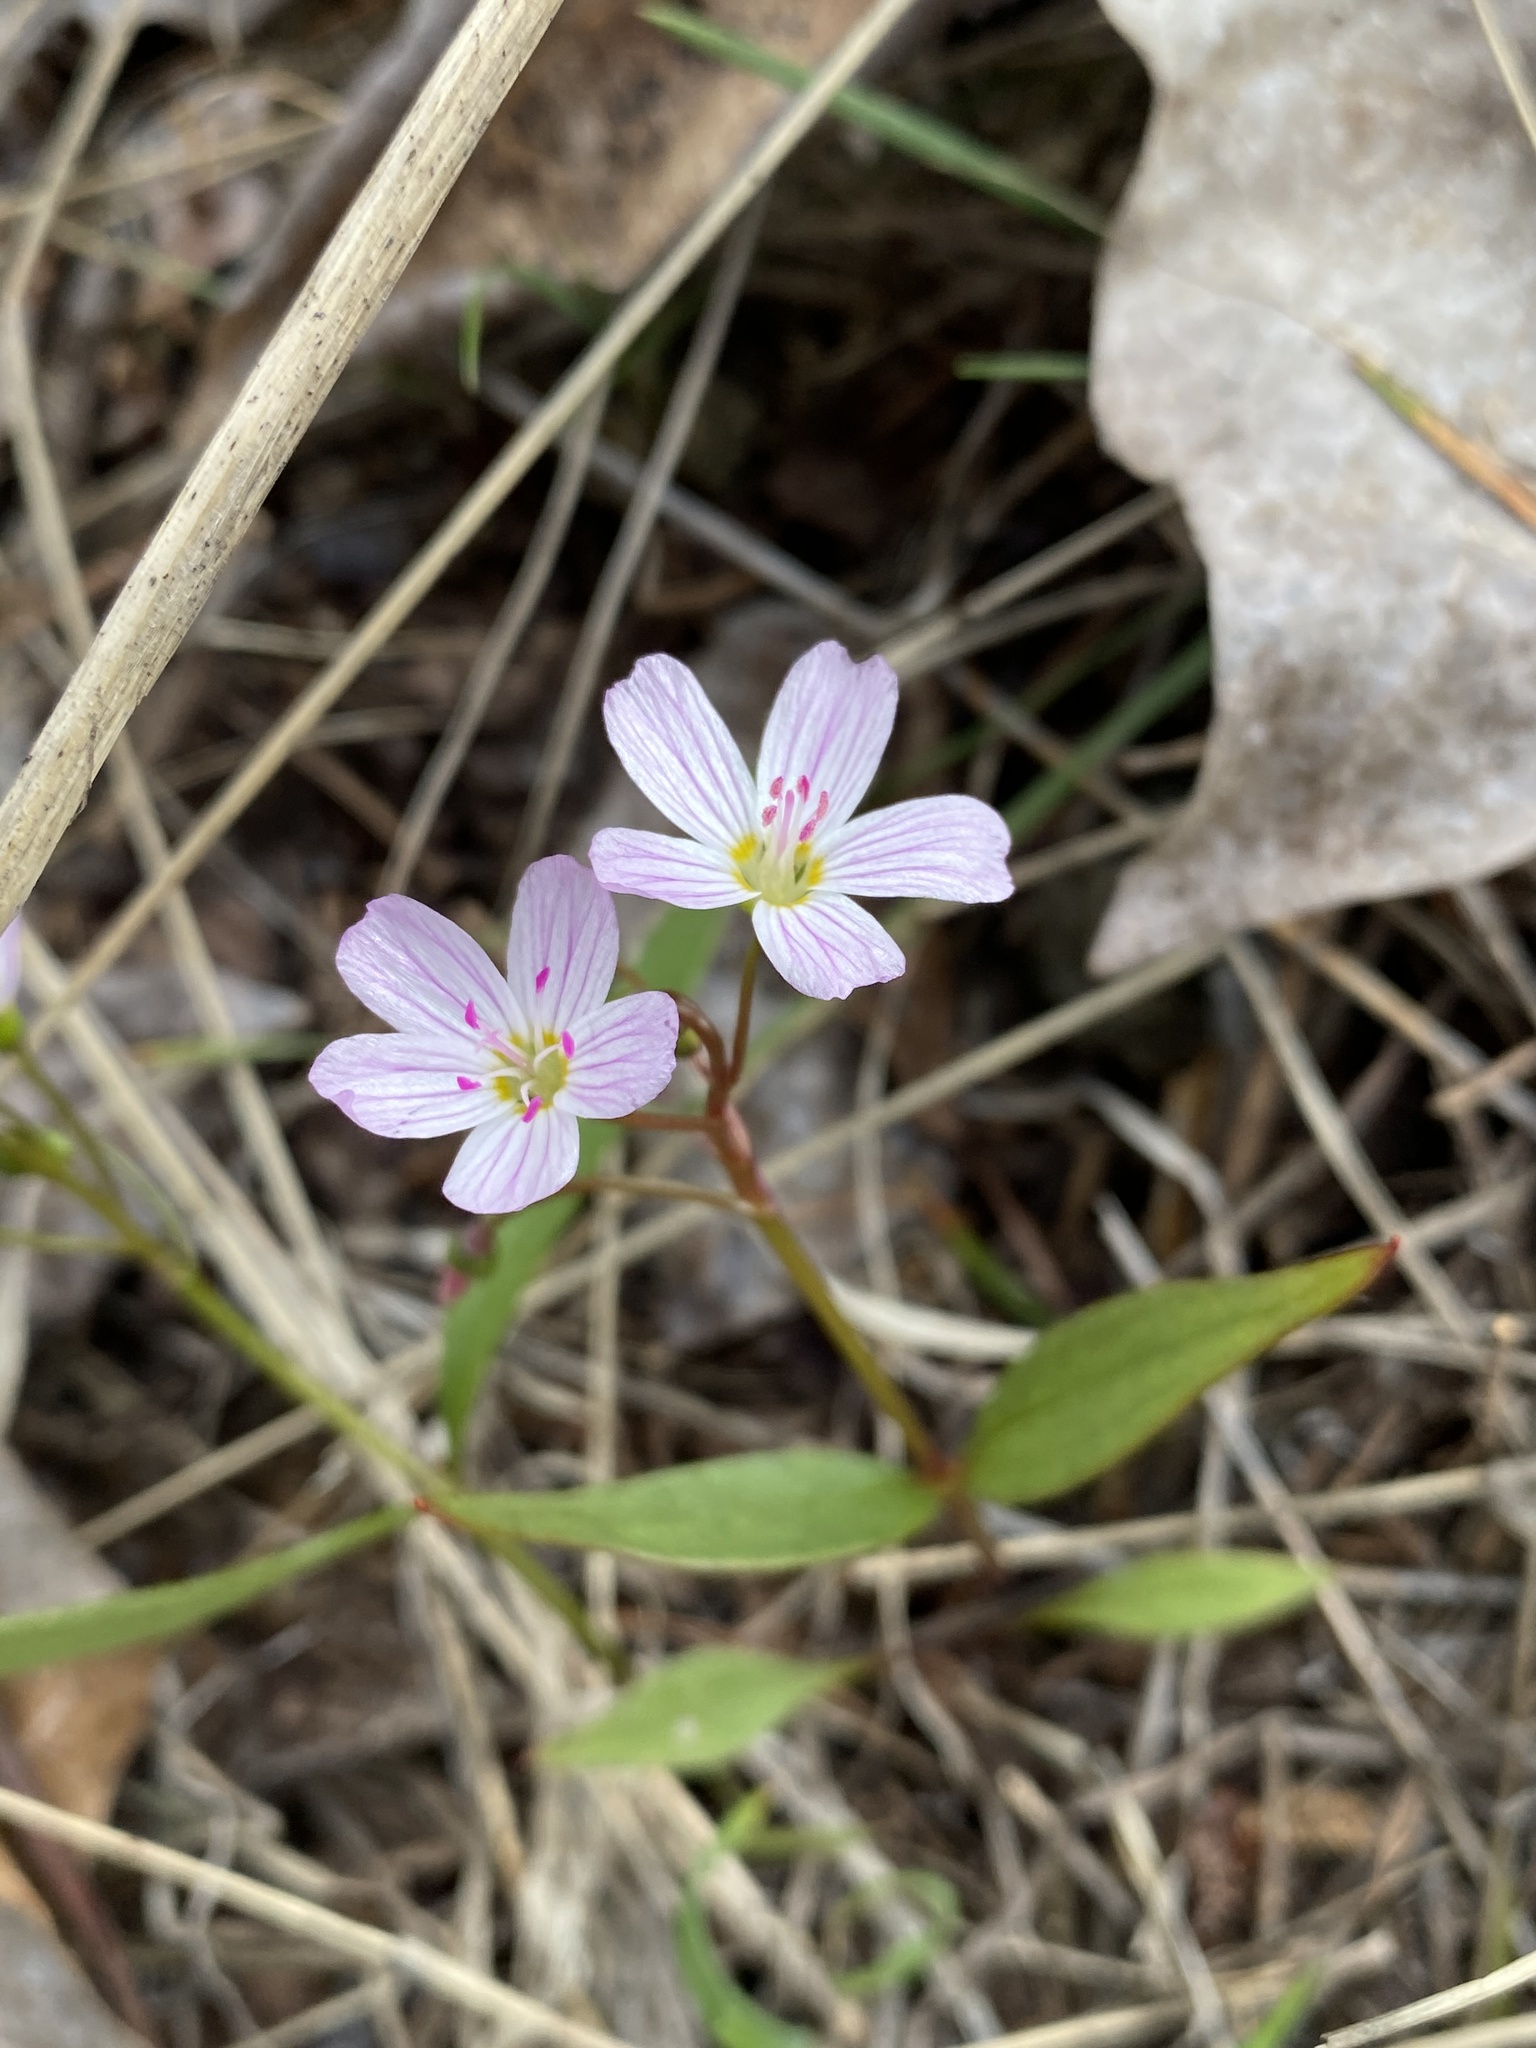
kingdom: Plantae
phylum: Tracheophyta
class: Magnoliopsida
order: Caryophyllales
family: Montiaceae
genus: Claytonia
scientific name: Claytonia lanceolata
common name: Western spring-beauty
